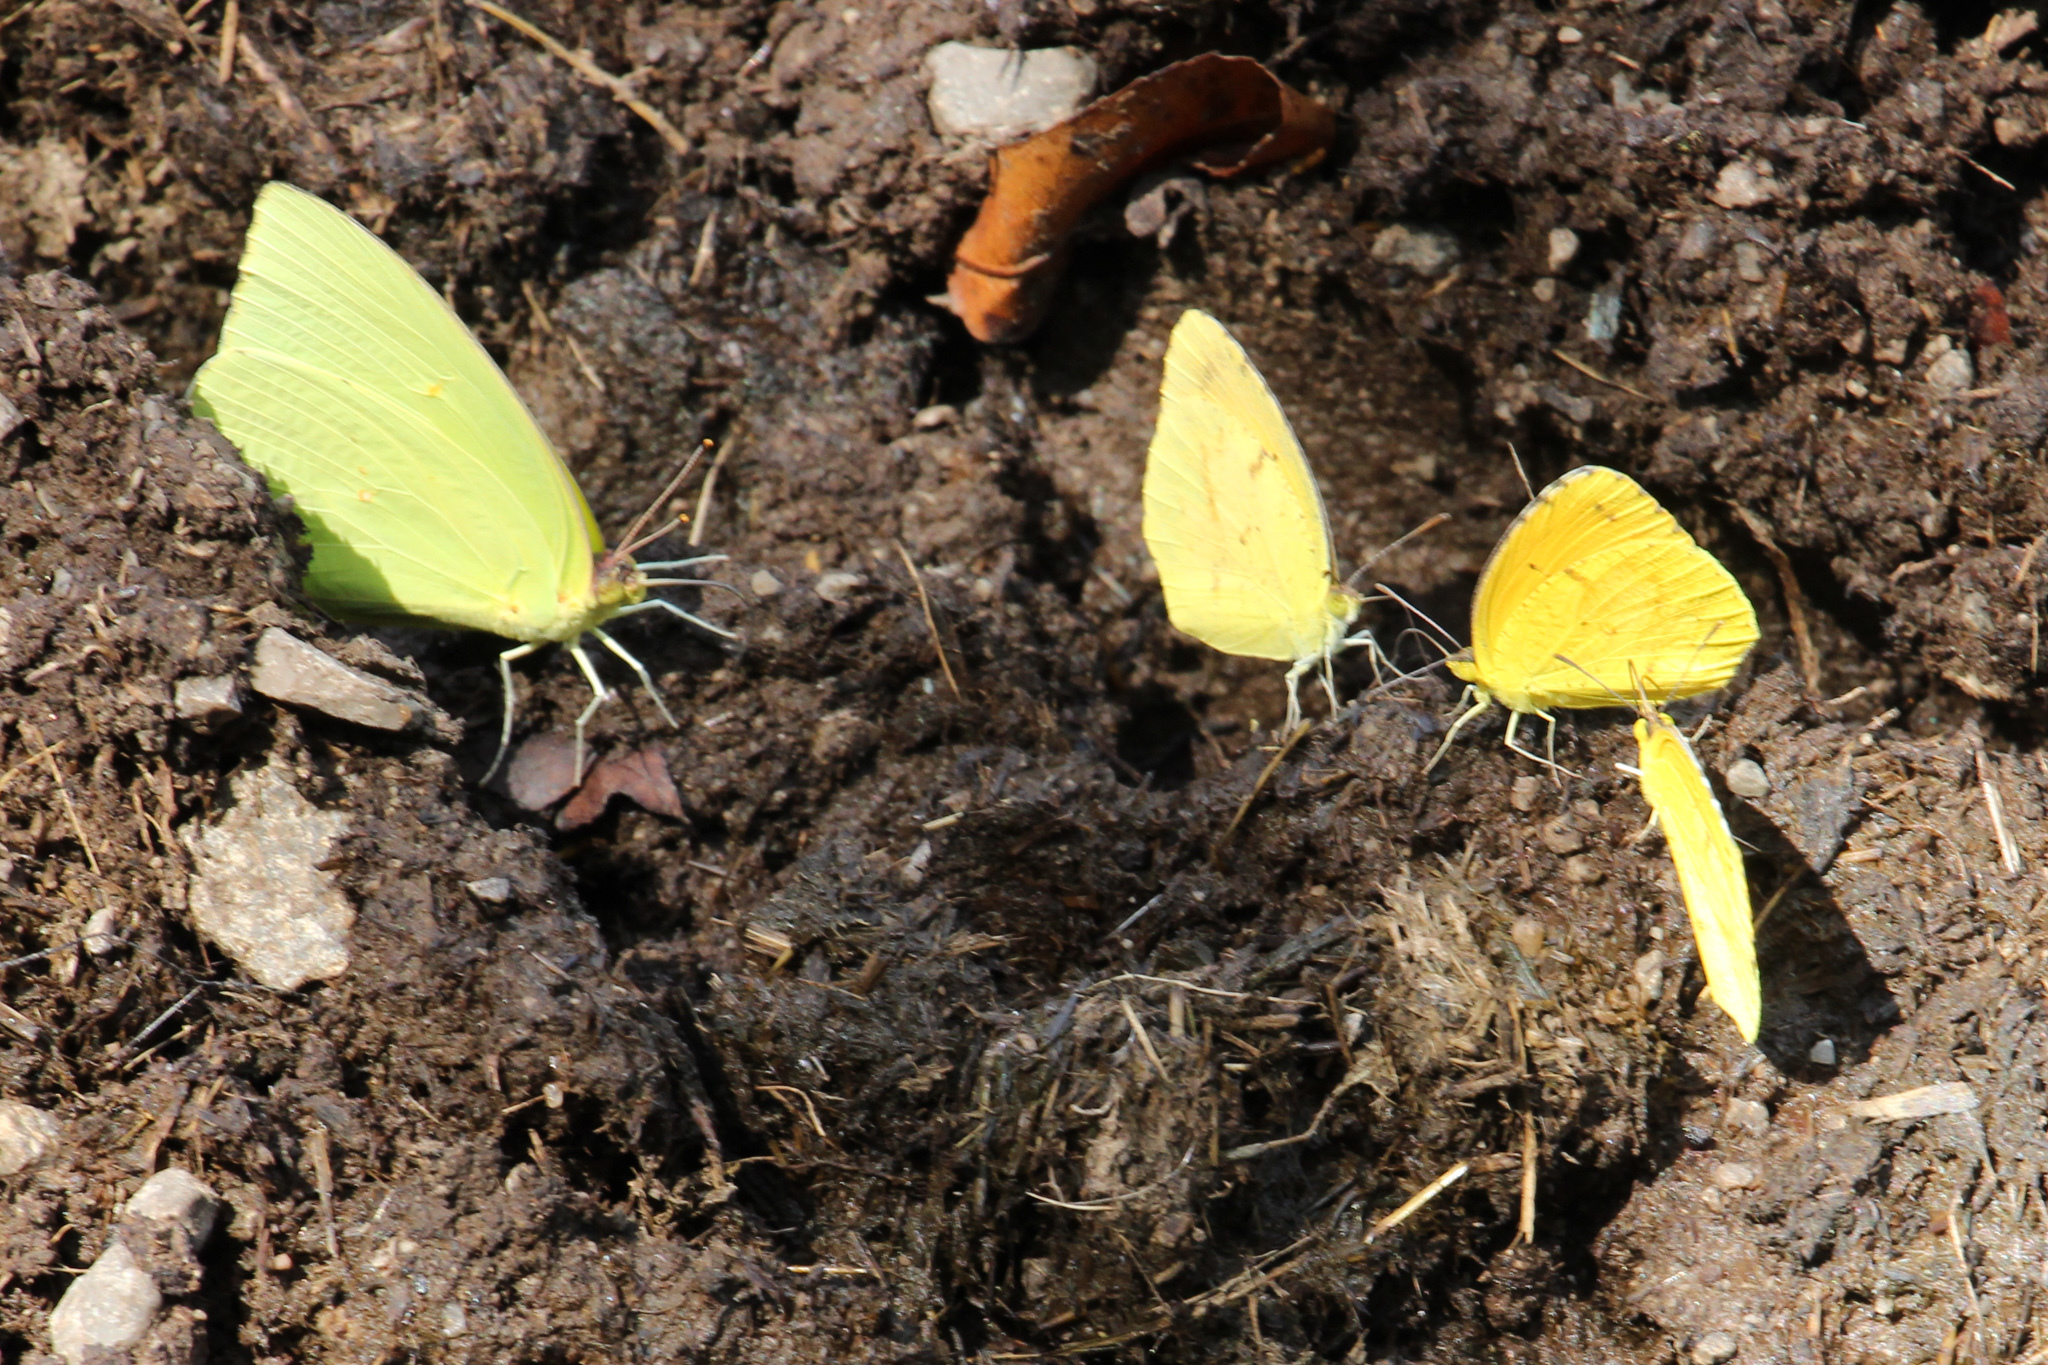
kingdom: Animalia
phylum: Arthropoda
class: Insecta
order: Lepidoptera
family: Pieridae
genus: Abaeis
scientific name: Abaeis nicippe
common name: Sleepy orange
